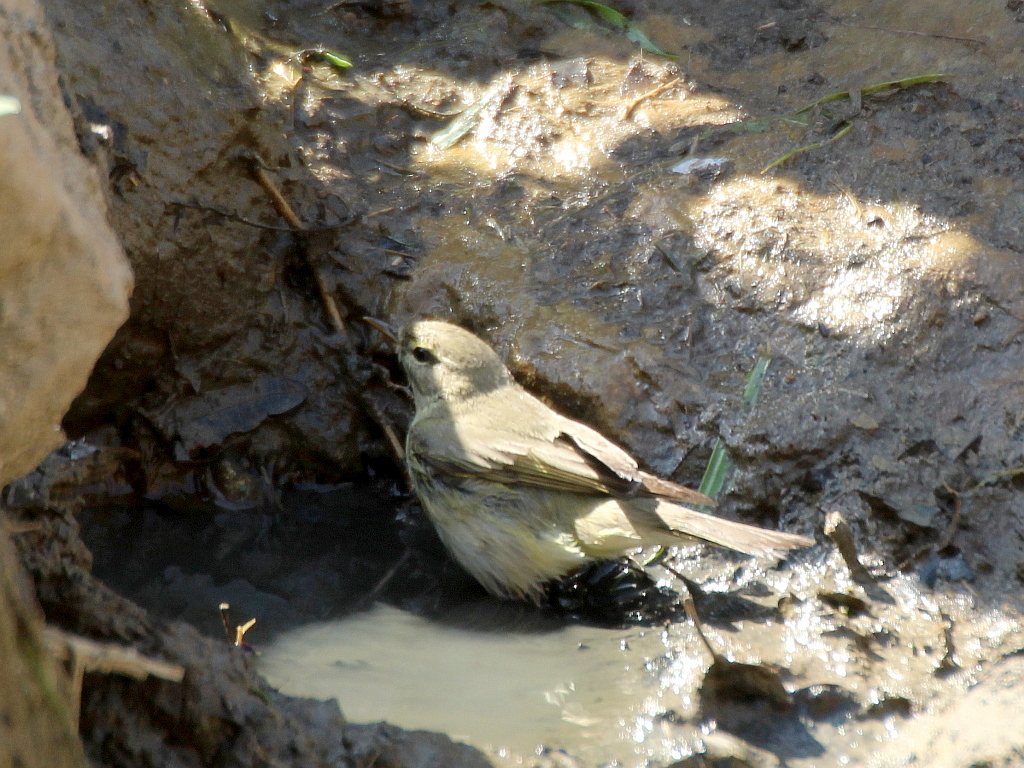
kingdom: Animalia
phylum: Chordata
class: Aves
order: Passeriformes
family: Phylloscopidae
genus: Phylloscopus
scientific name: Phylloscopus trochilus
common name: Willow warbler
